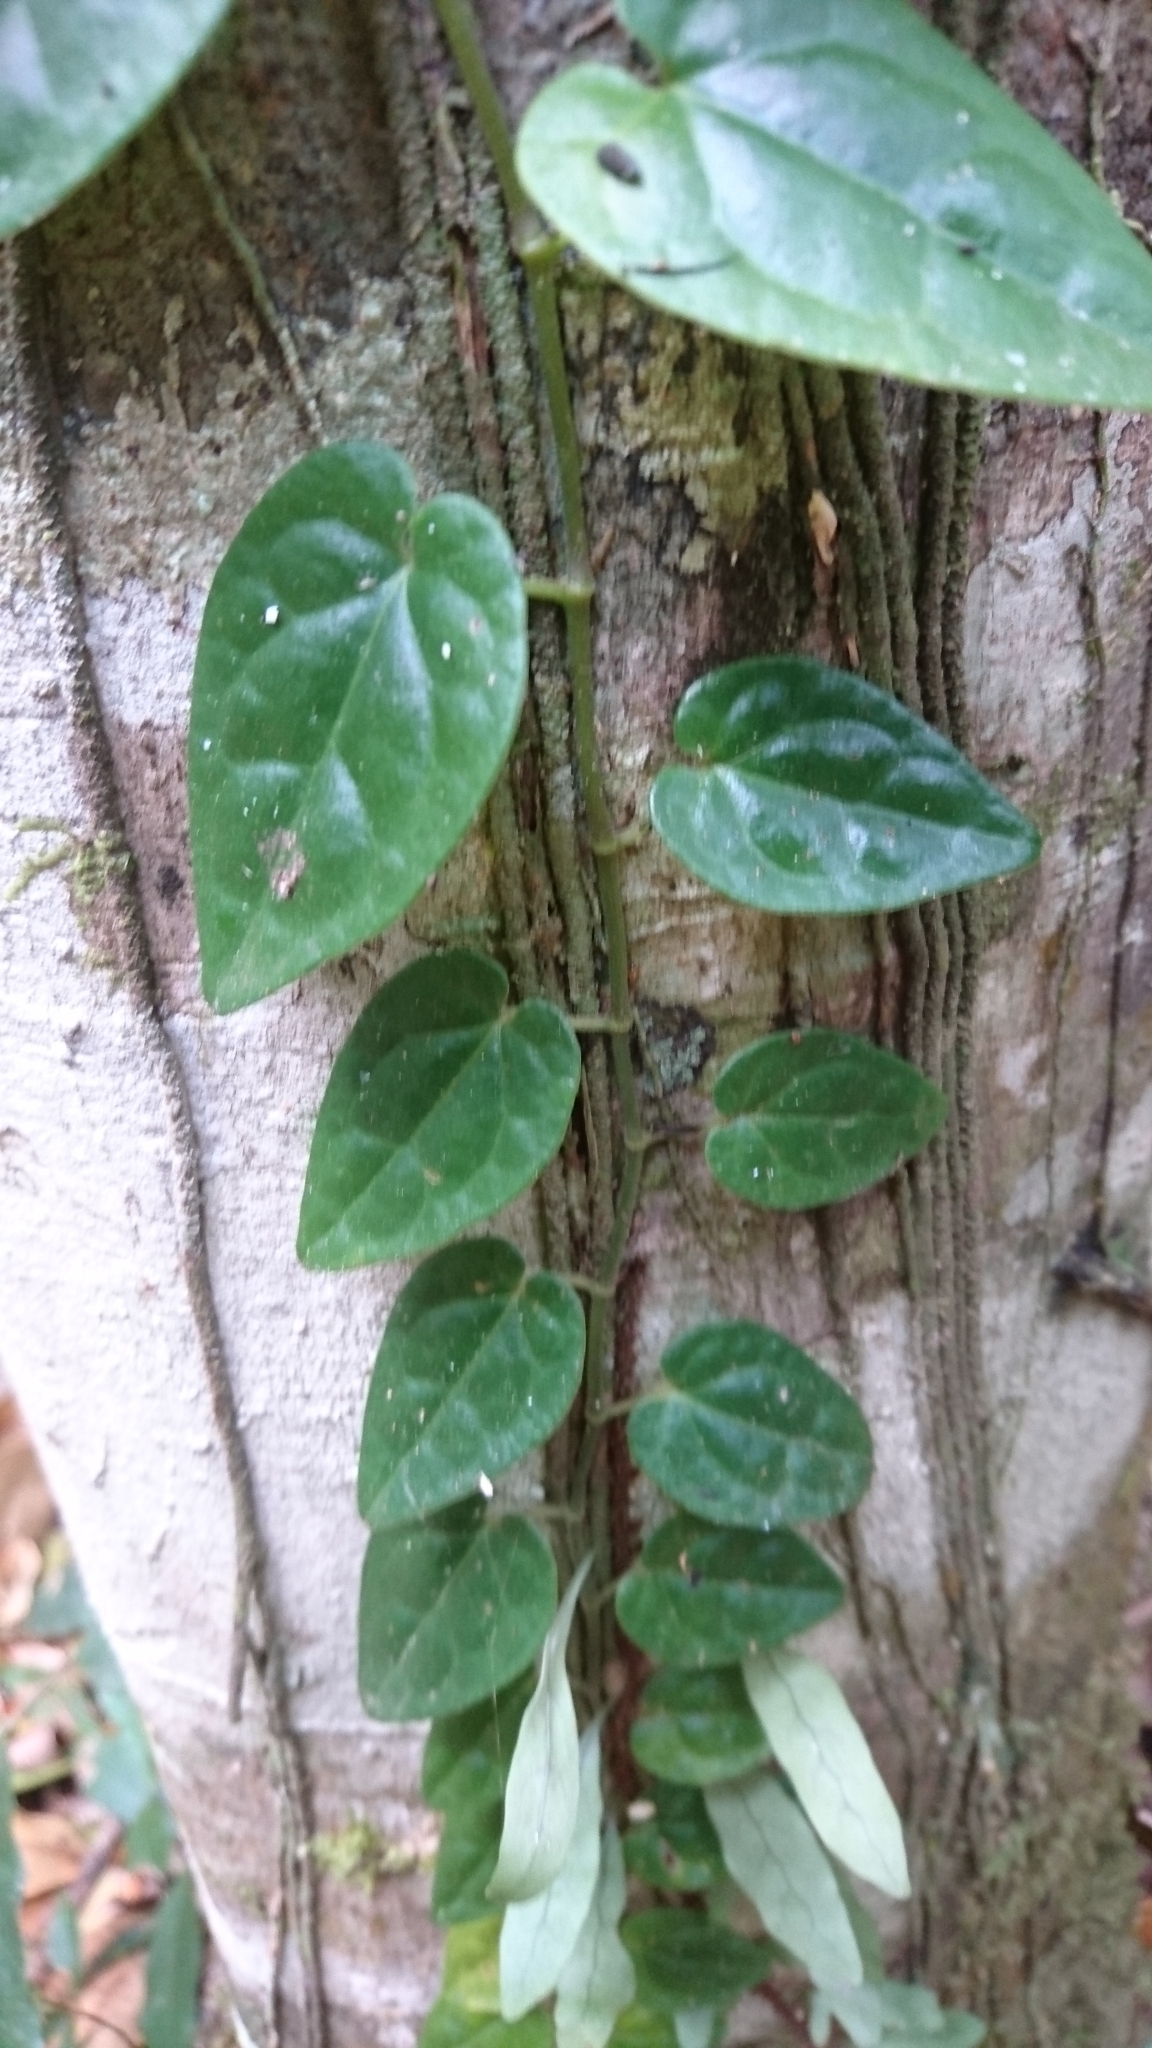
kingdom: Plantae
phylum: Tracheophyta
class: Magnoliopsida
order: Piperales
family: Piperaceae
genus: Piper
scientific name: Piper hederaceum
